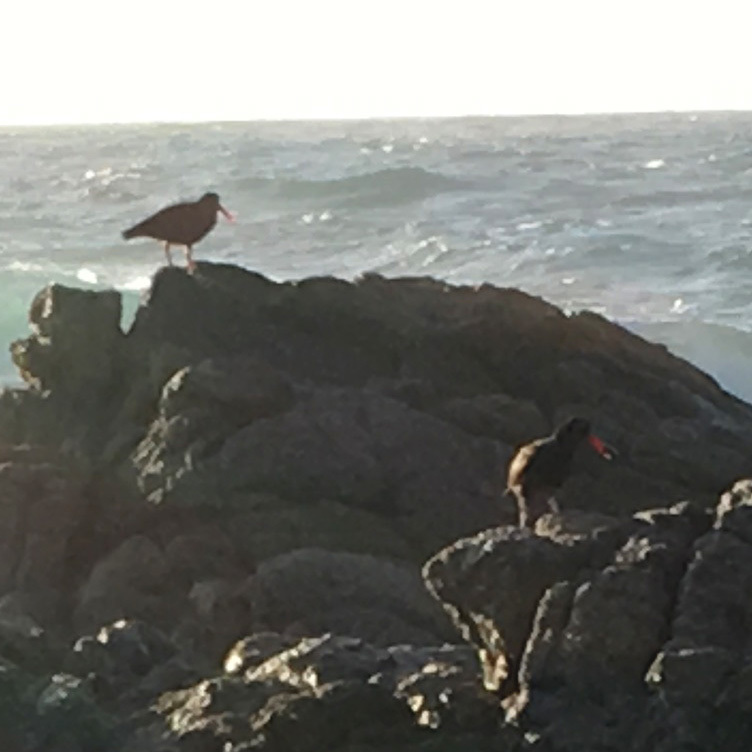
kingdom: Animalia
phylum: Chordata
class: Aves
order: Charadriiformes
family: Haematopodidae
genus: Haematopus
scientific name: Haematopus bachmani
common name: Black oystercatcher
